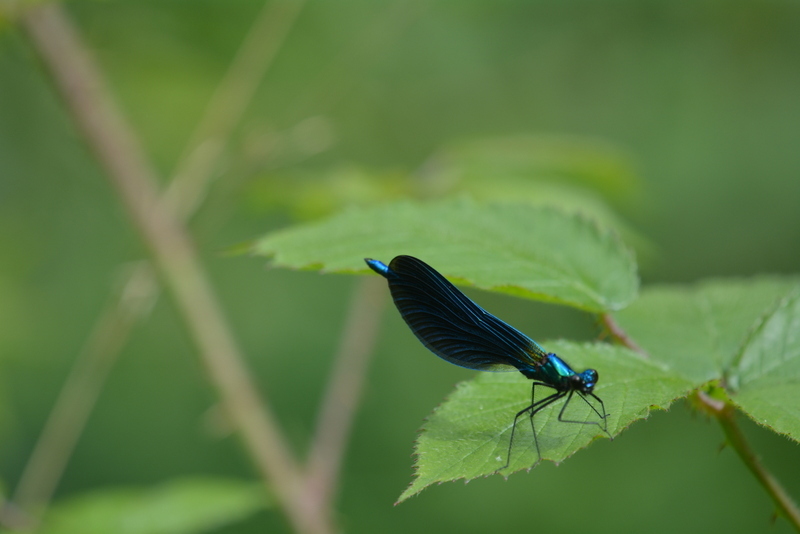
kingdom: Animalia
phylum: Arthropoda
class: Insecta
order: Odonata
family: Calopterygidae
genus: Calopteryx
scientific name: Calopteryx virgo
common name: Beautiful demoiselle
